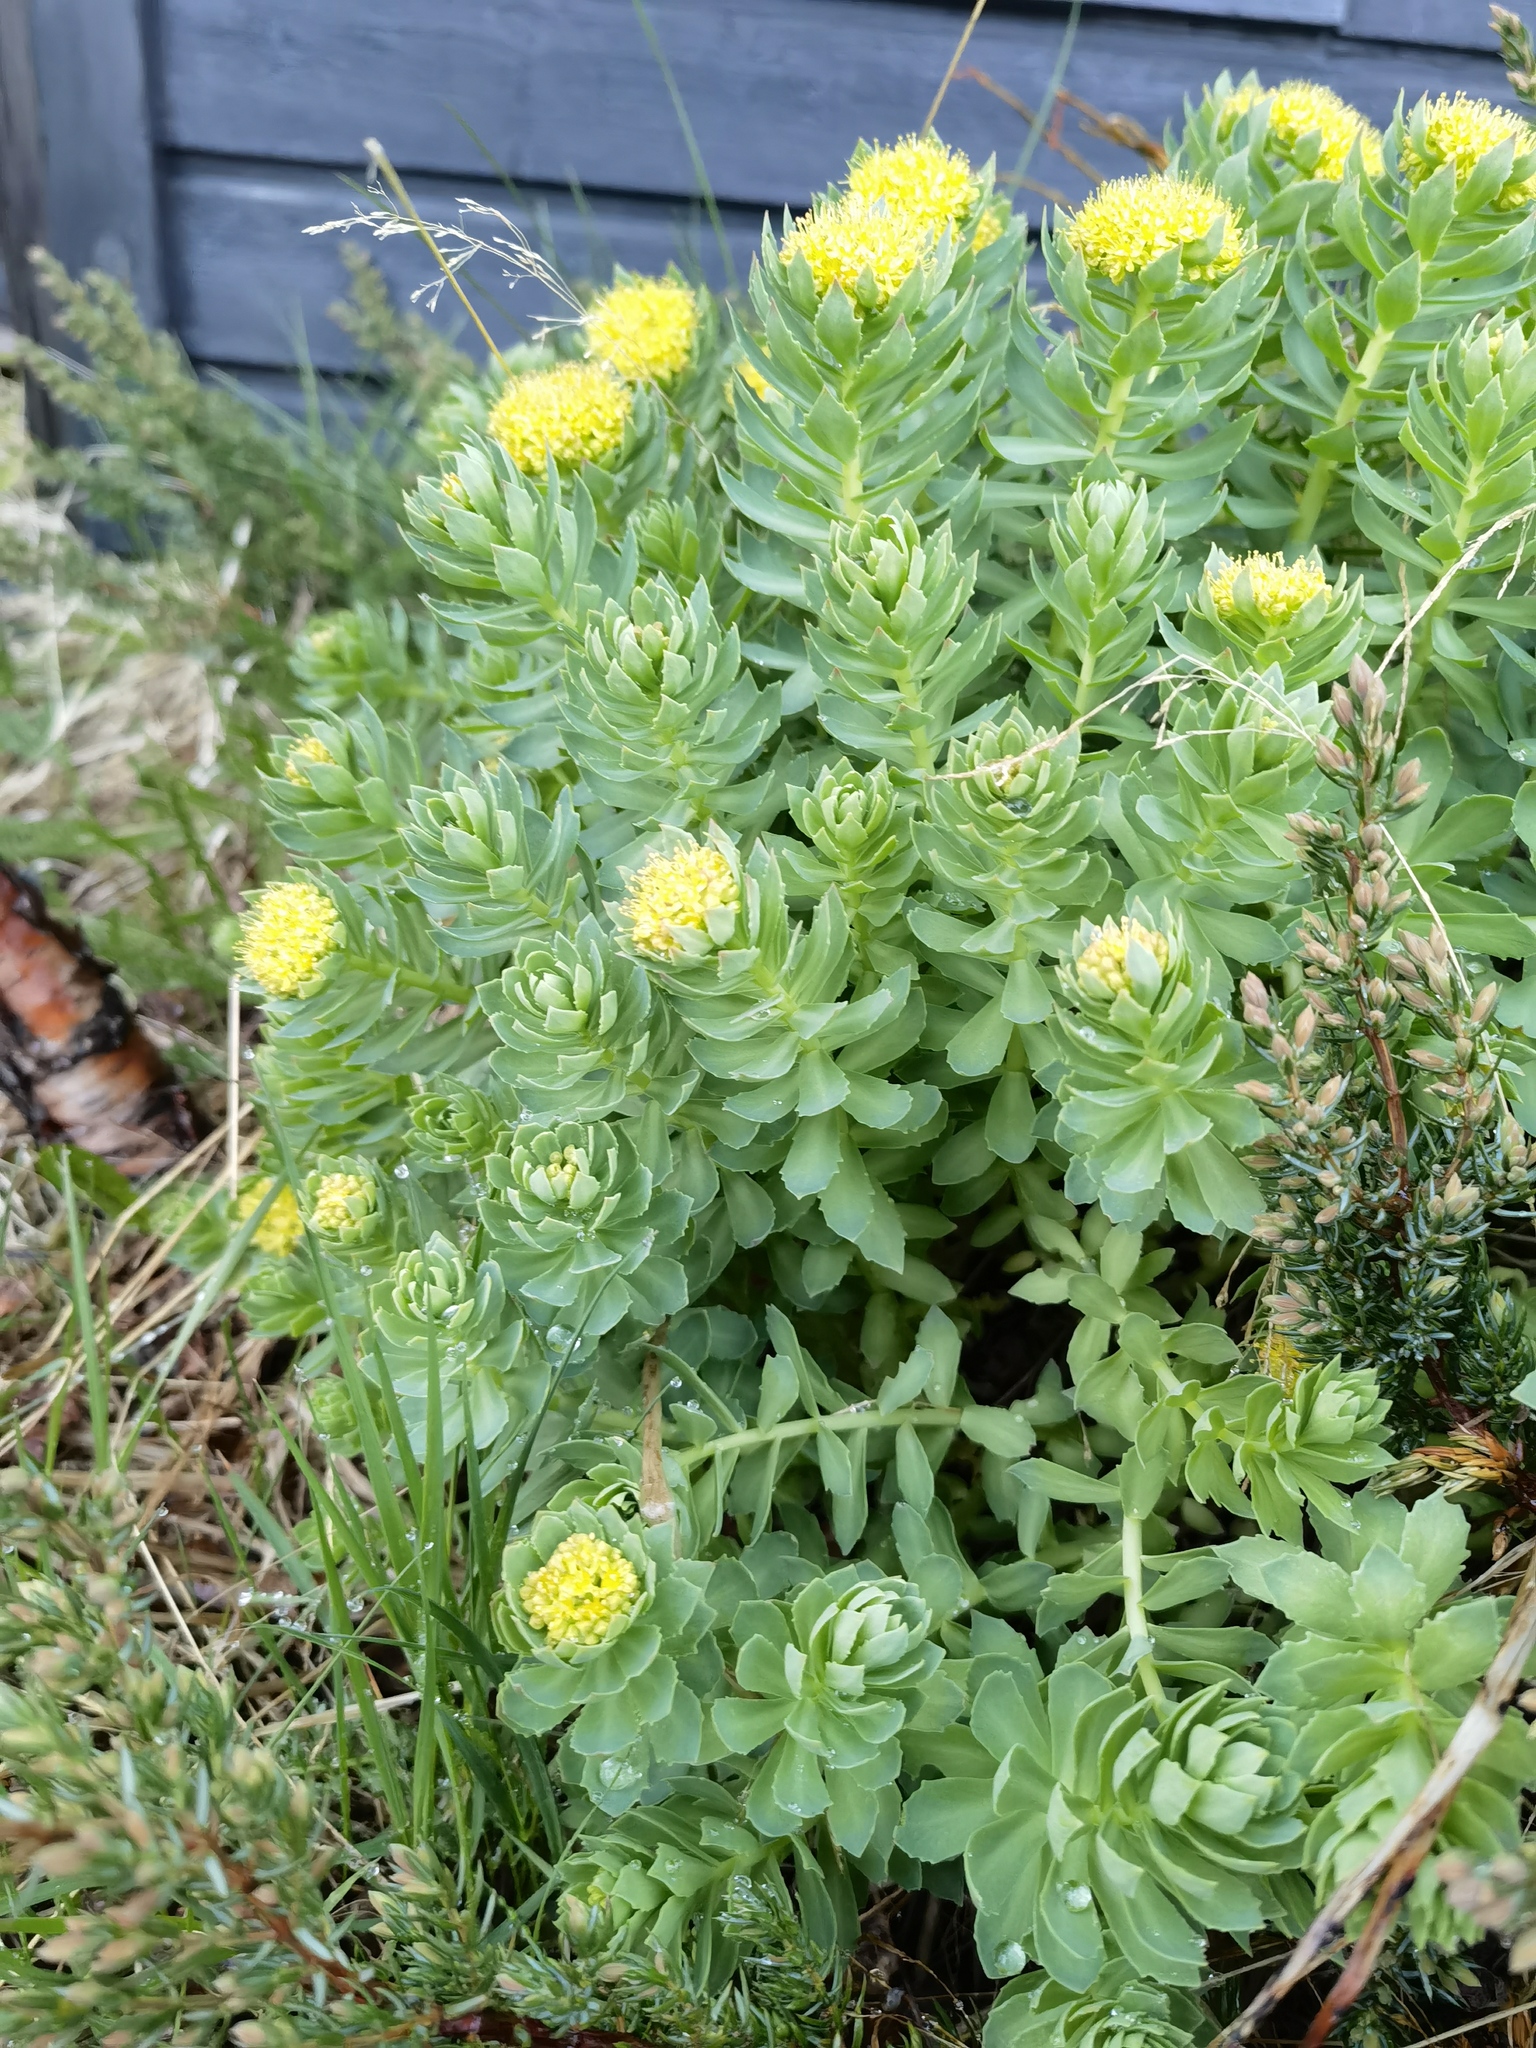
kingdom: Plantae
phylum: Tracheophyta
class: Magnoliopsida
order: Saxifragales
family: Crassulaceae
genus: Rhodiola
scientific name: Rhodiola rosea
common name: Roseroot
